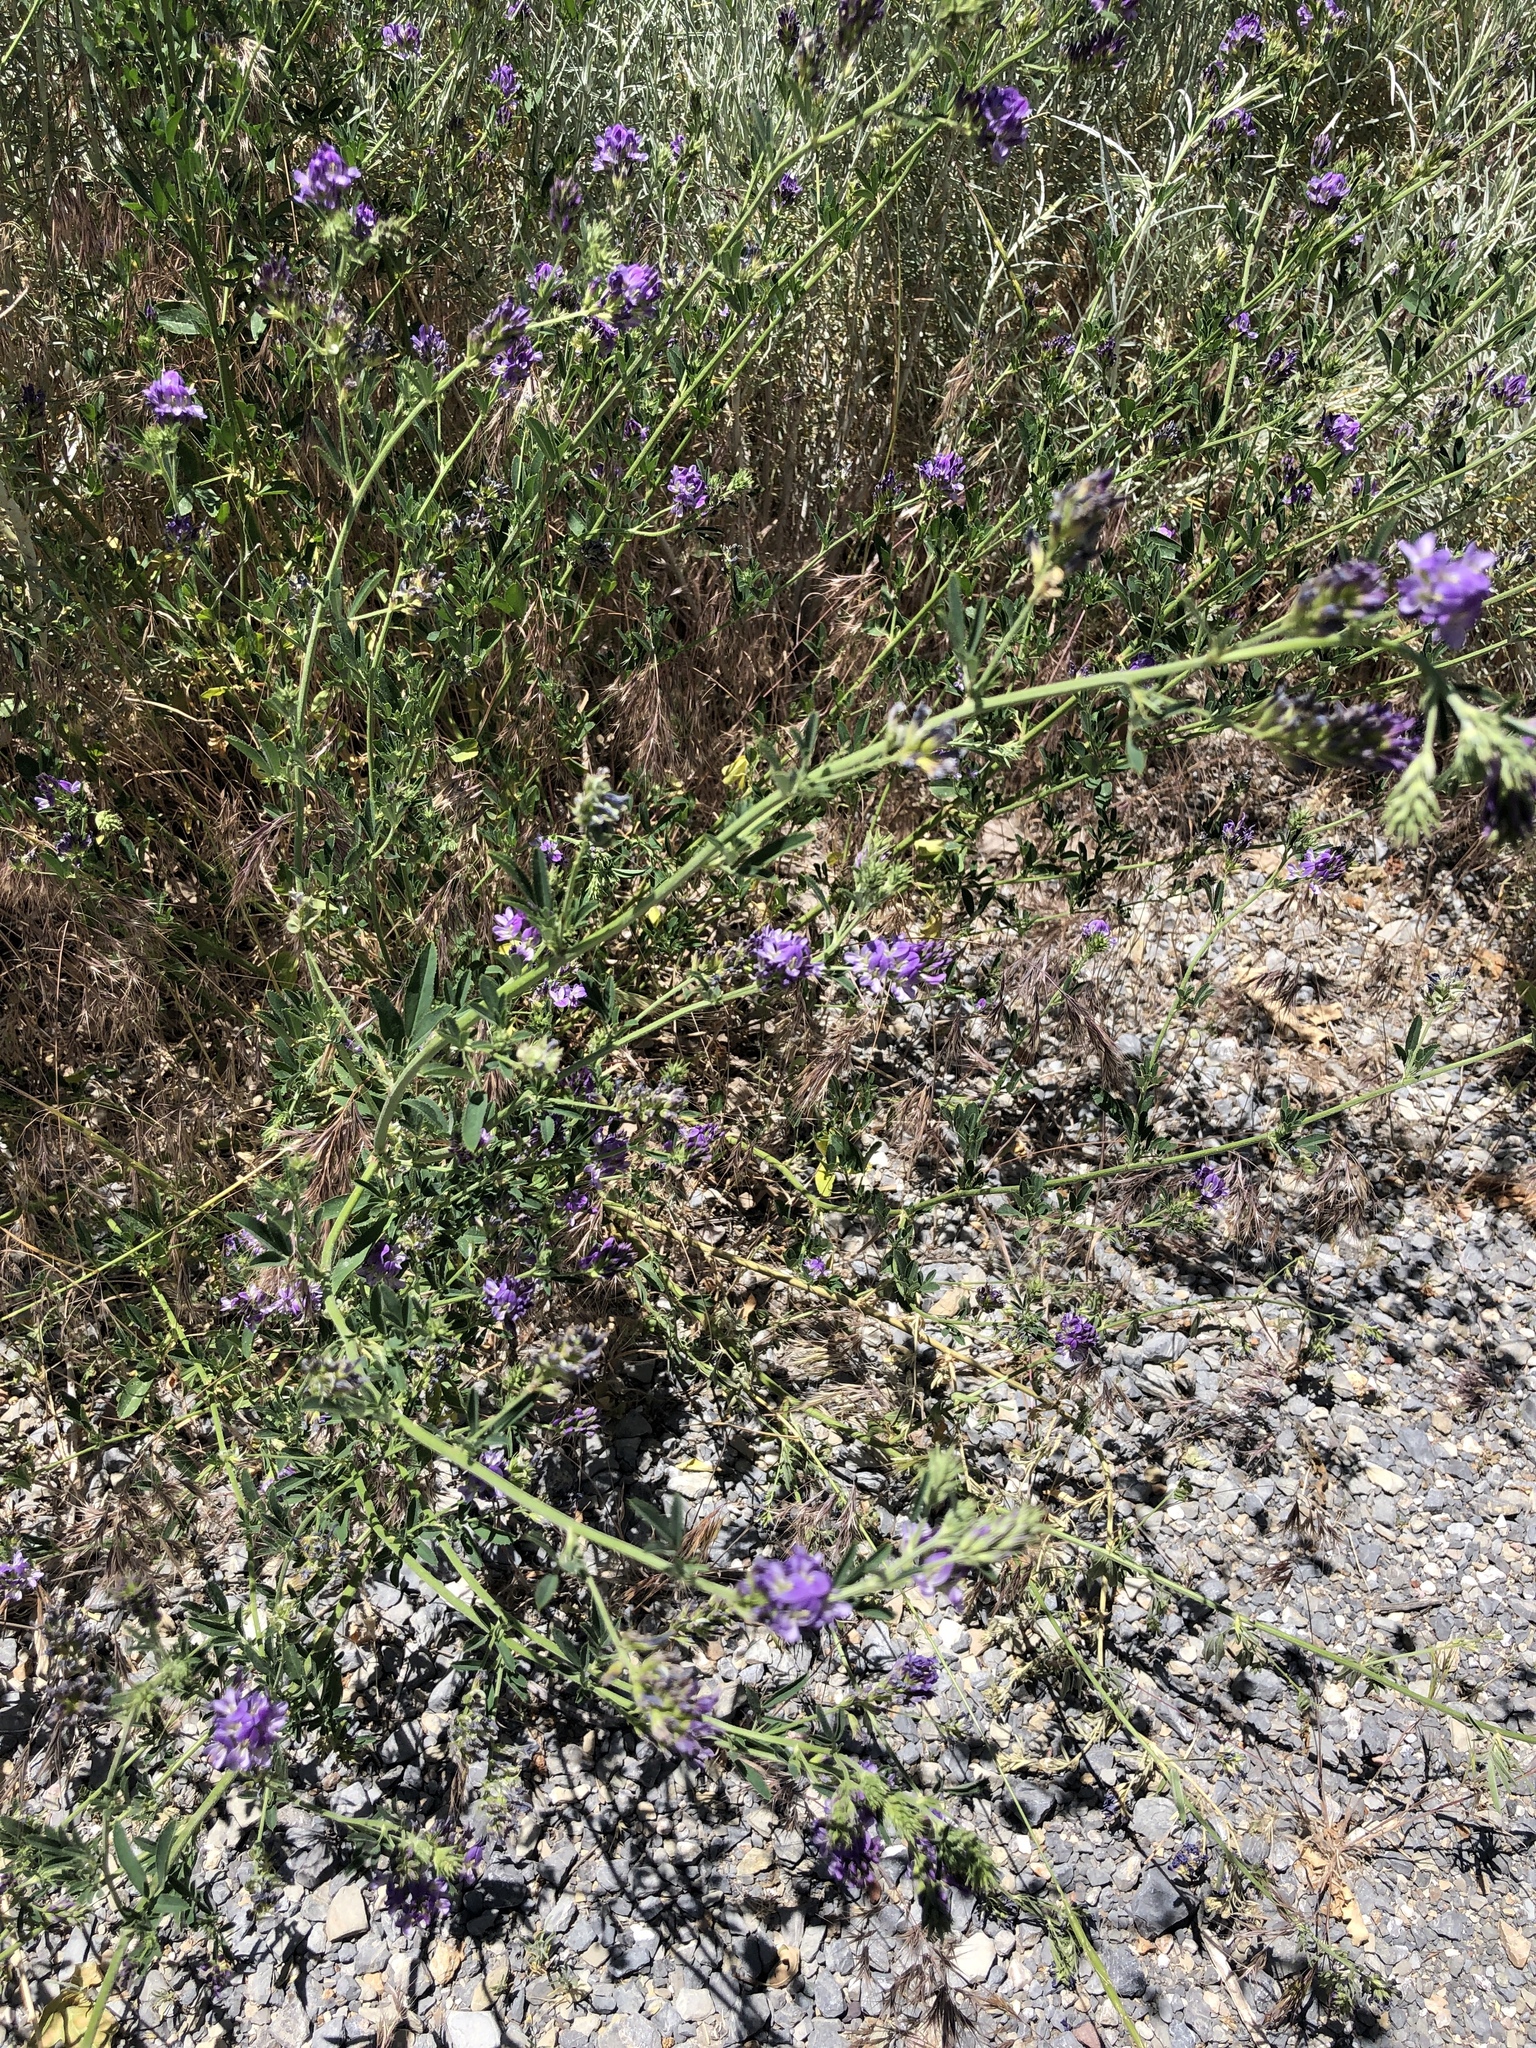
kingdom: Plantae
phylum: Tracheophyta
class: Magnoliopsida
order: Fabales
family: Fabaceae
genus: Medicago
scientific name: Medicago sativa
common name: Alfalfa
